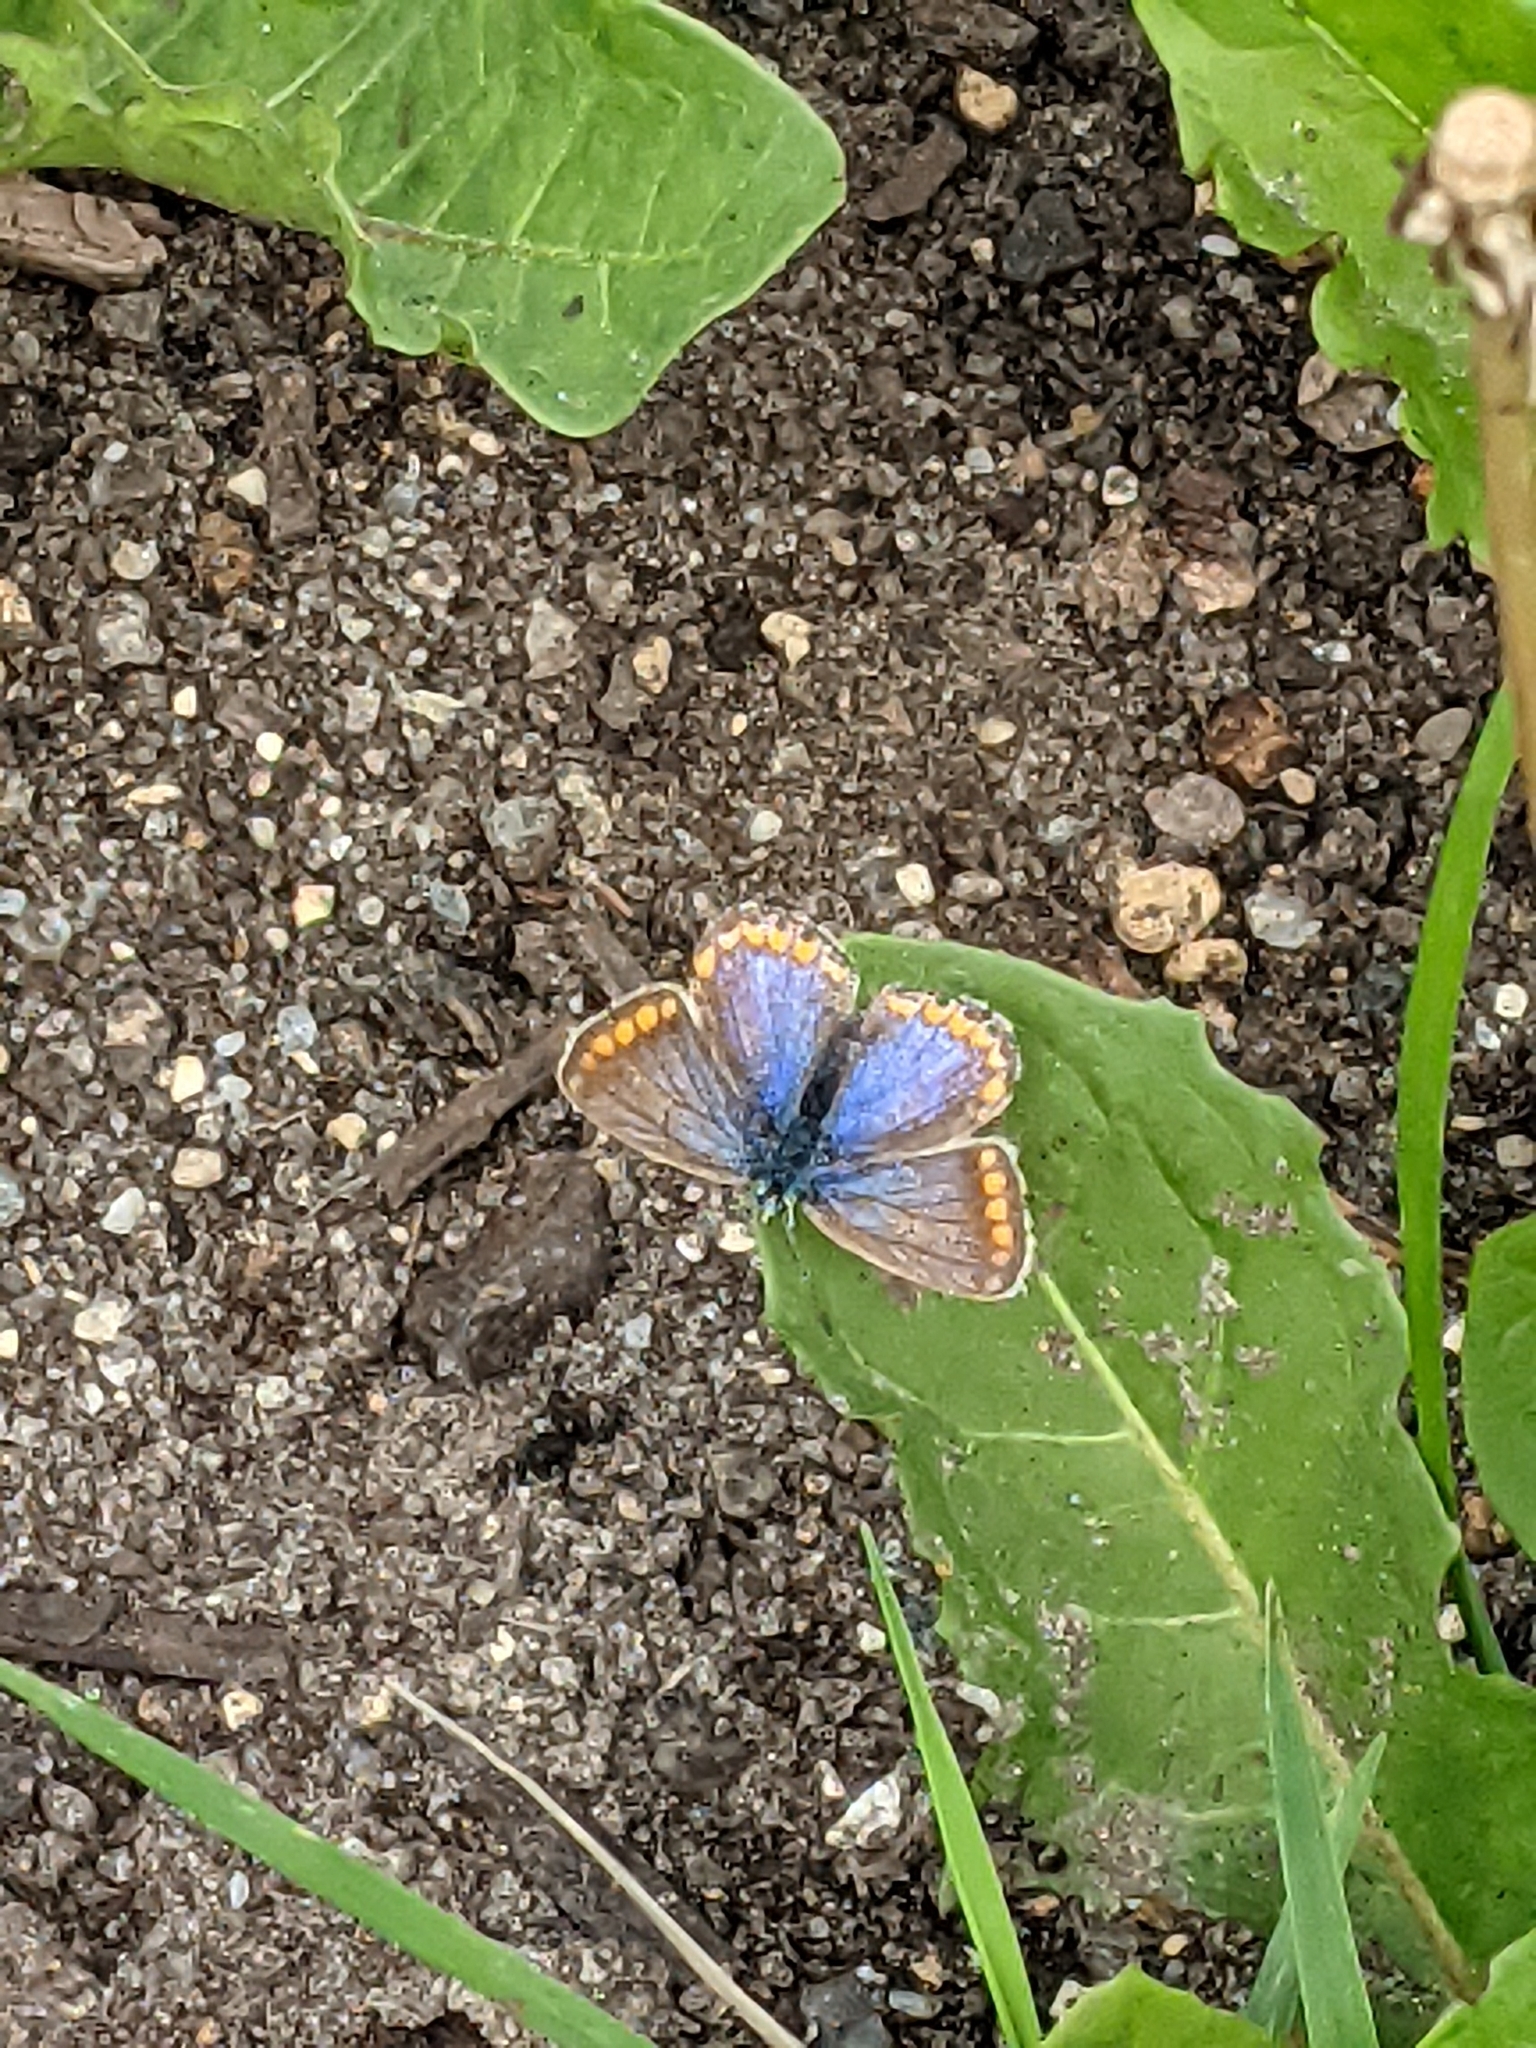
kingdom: Animalia
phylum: Arthropoda
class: Insecta
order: Lepidoptera
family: Lycaenidae
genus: Polyommatus
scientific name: Polyommatus icarus
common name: Common blue
